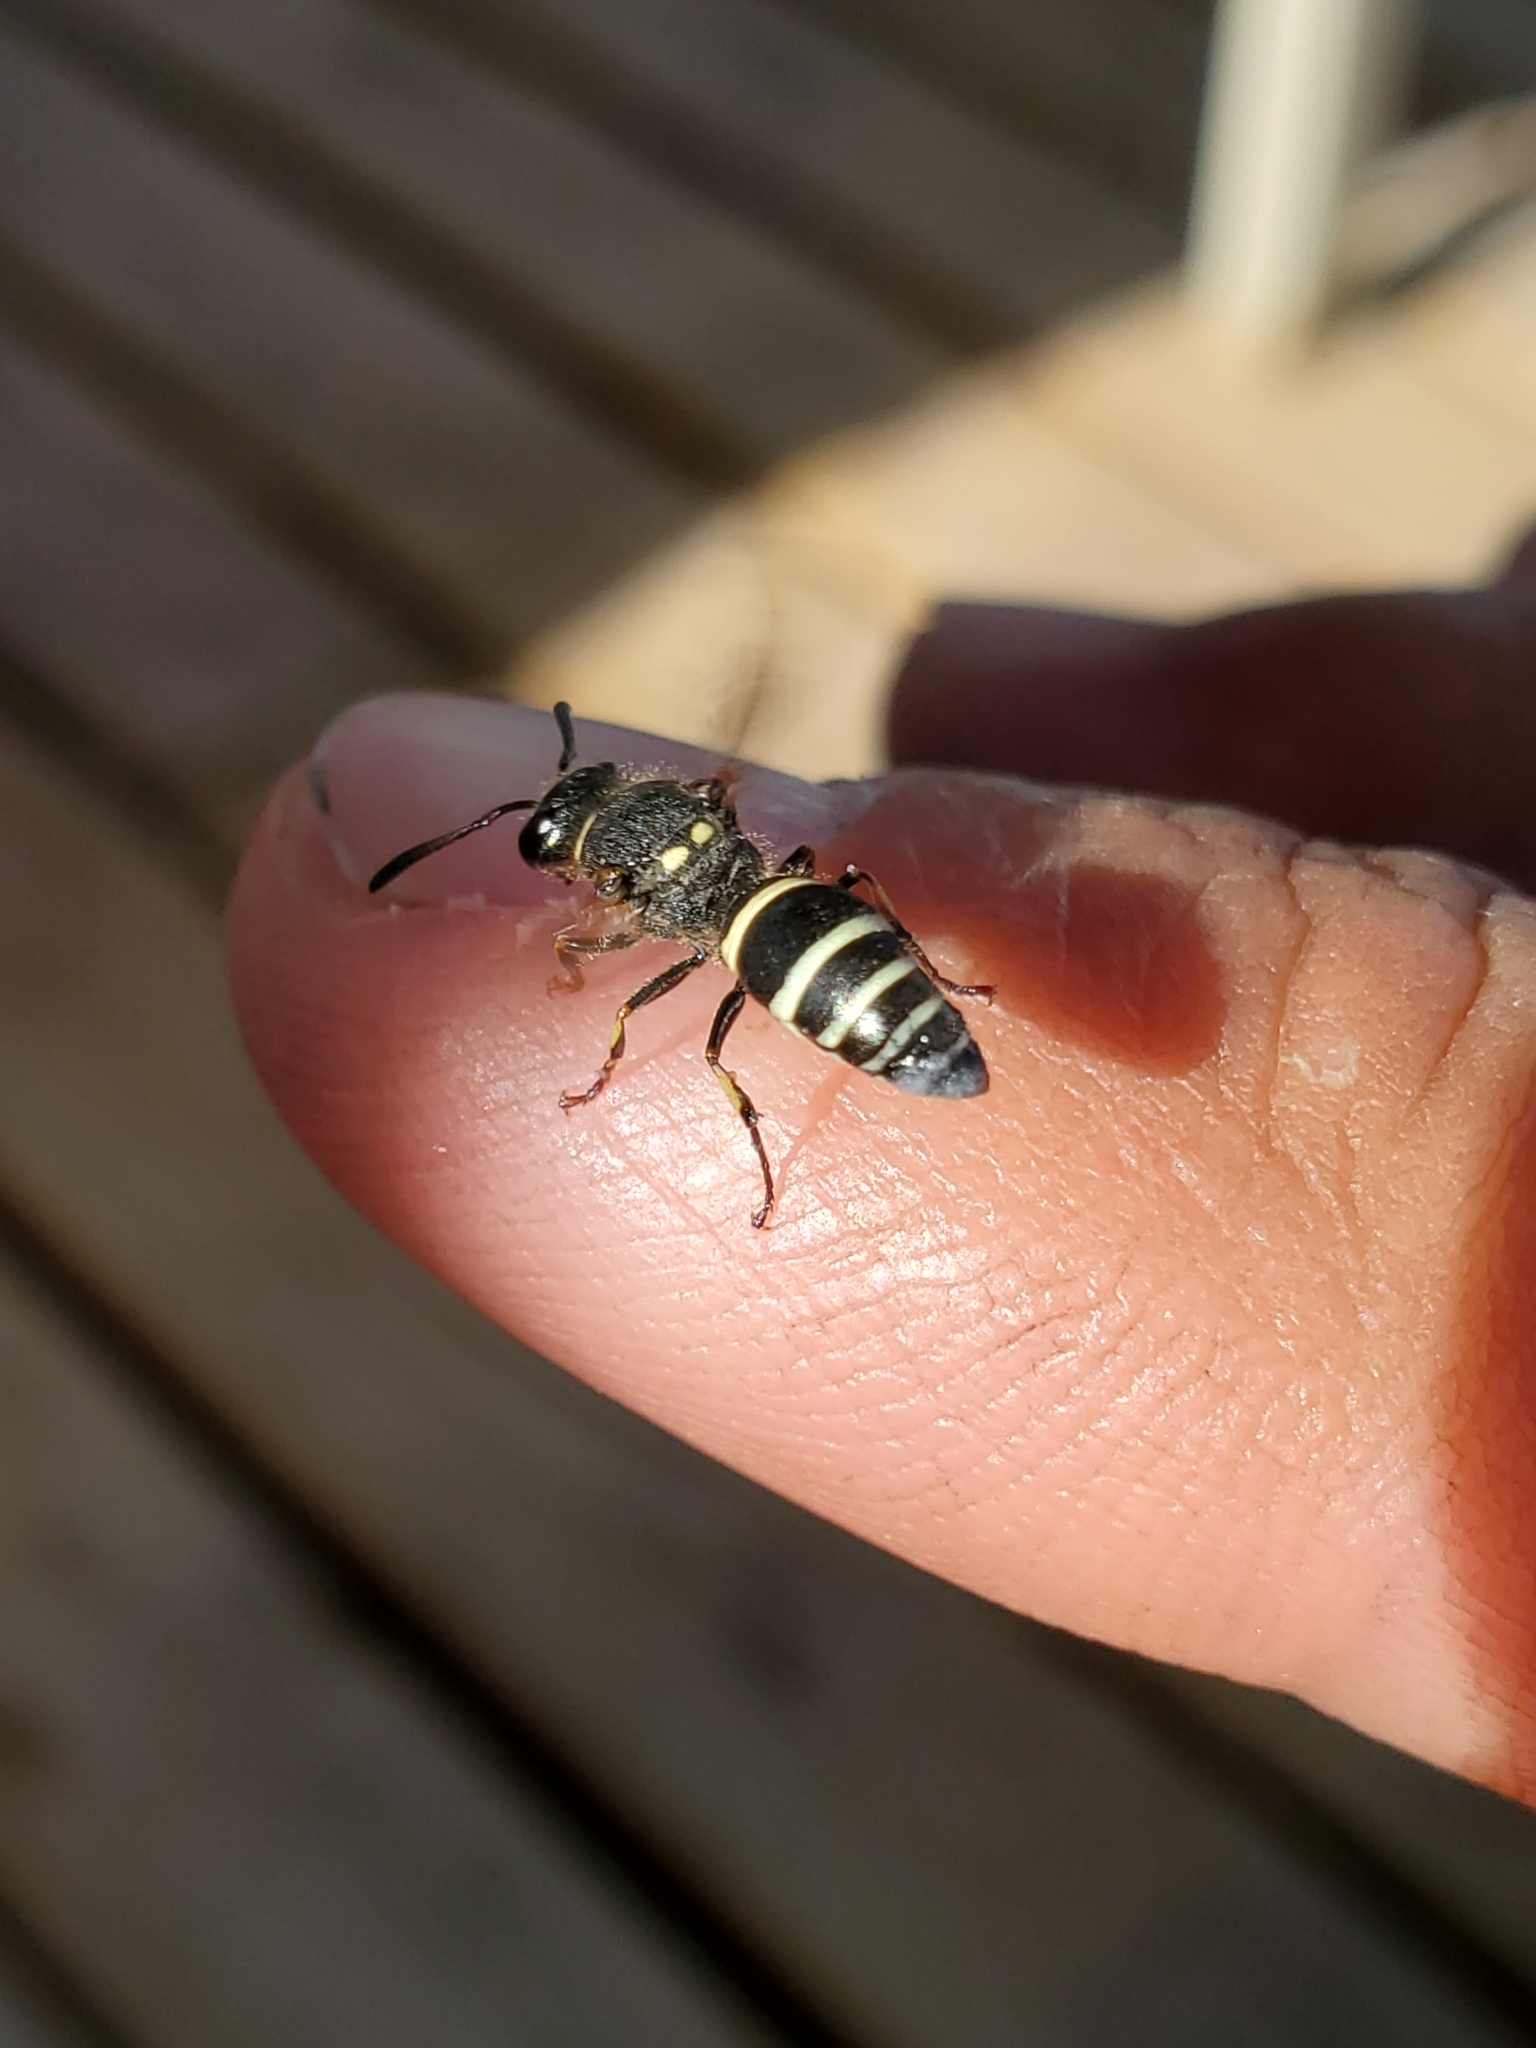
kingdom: Animalia
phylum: Arthropoda
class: Insecta
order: Hymenoptera
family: Vespidae
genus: Ancistrocerus
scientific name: Ancistrocerus albophaleratus
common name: White-banded potter wasp
